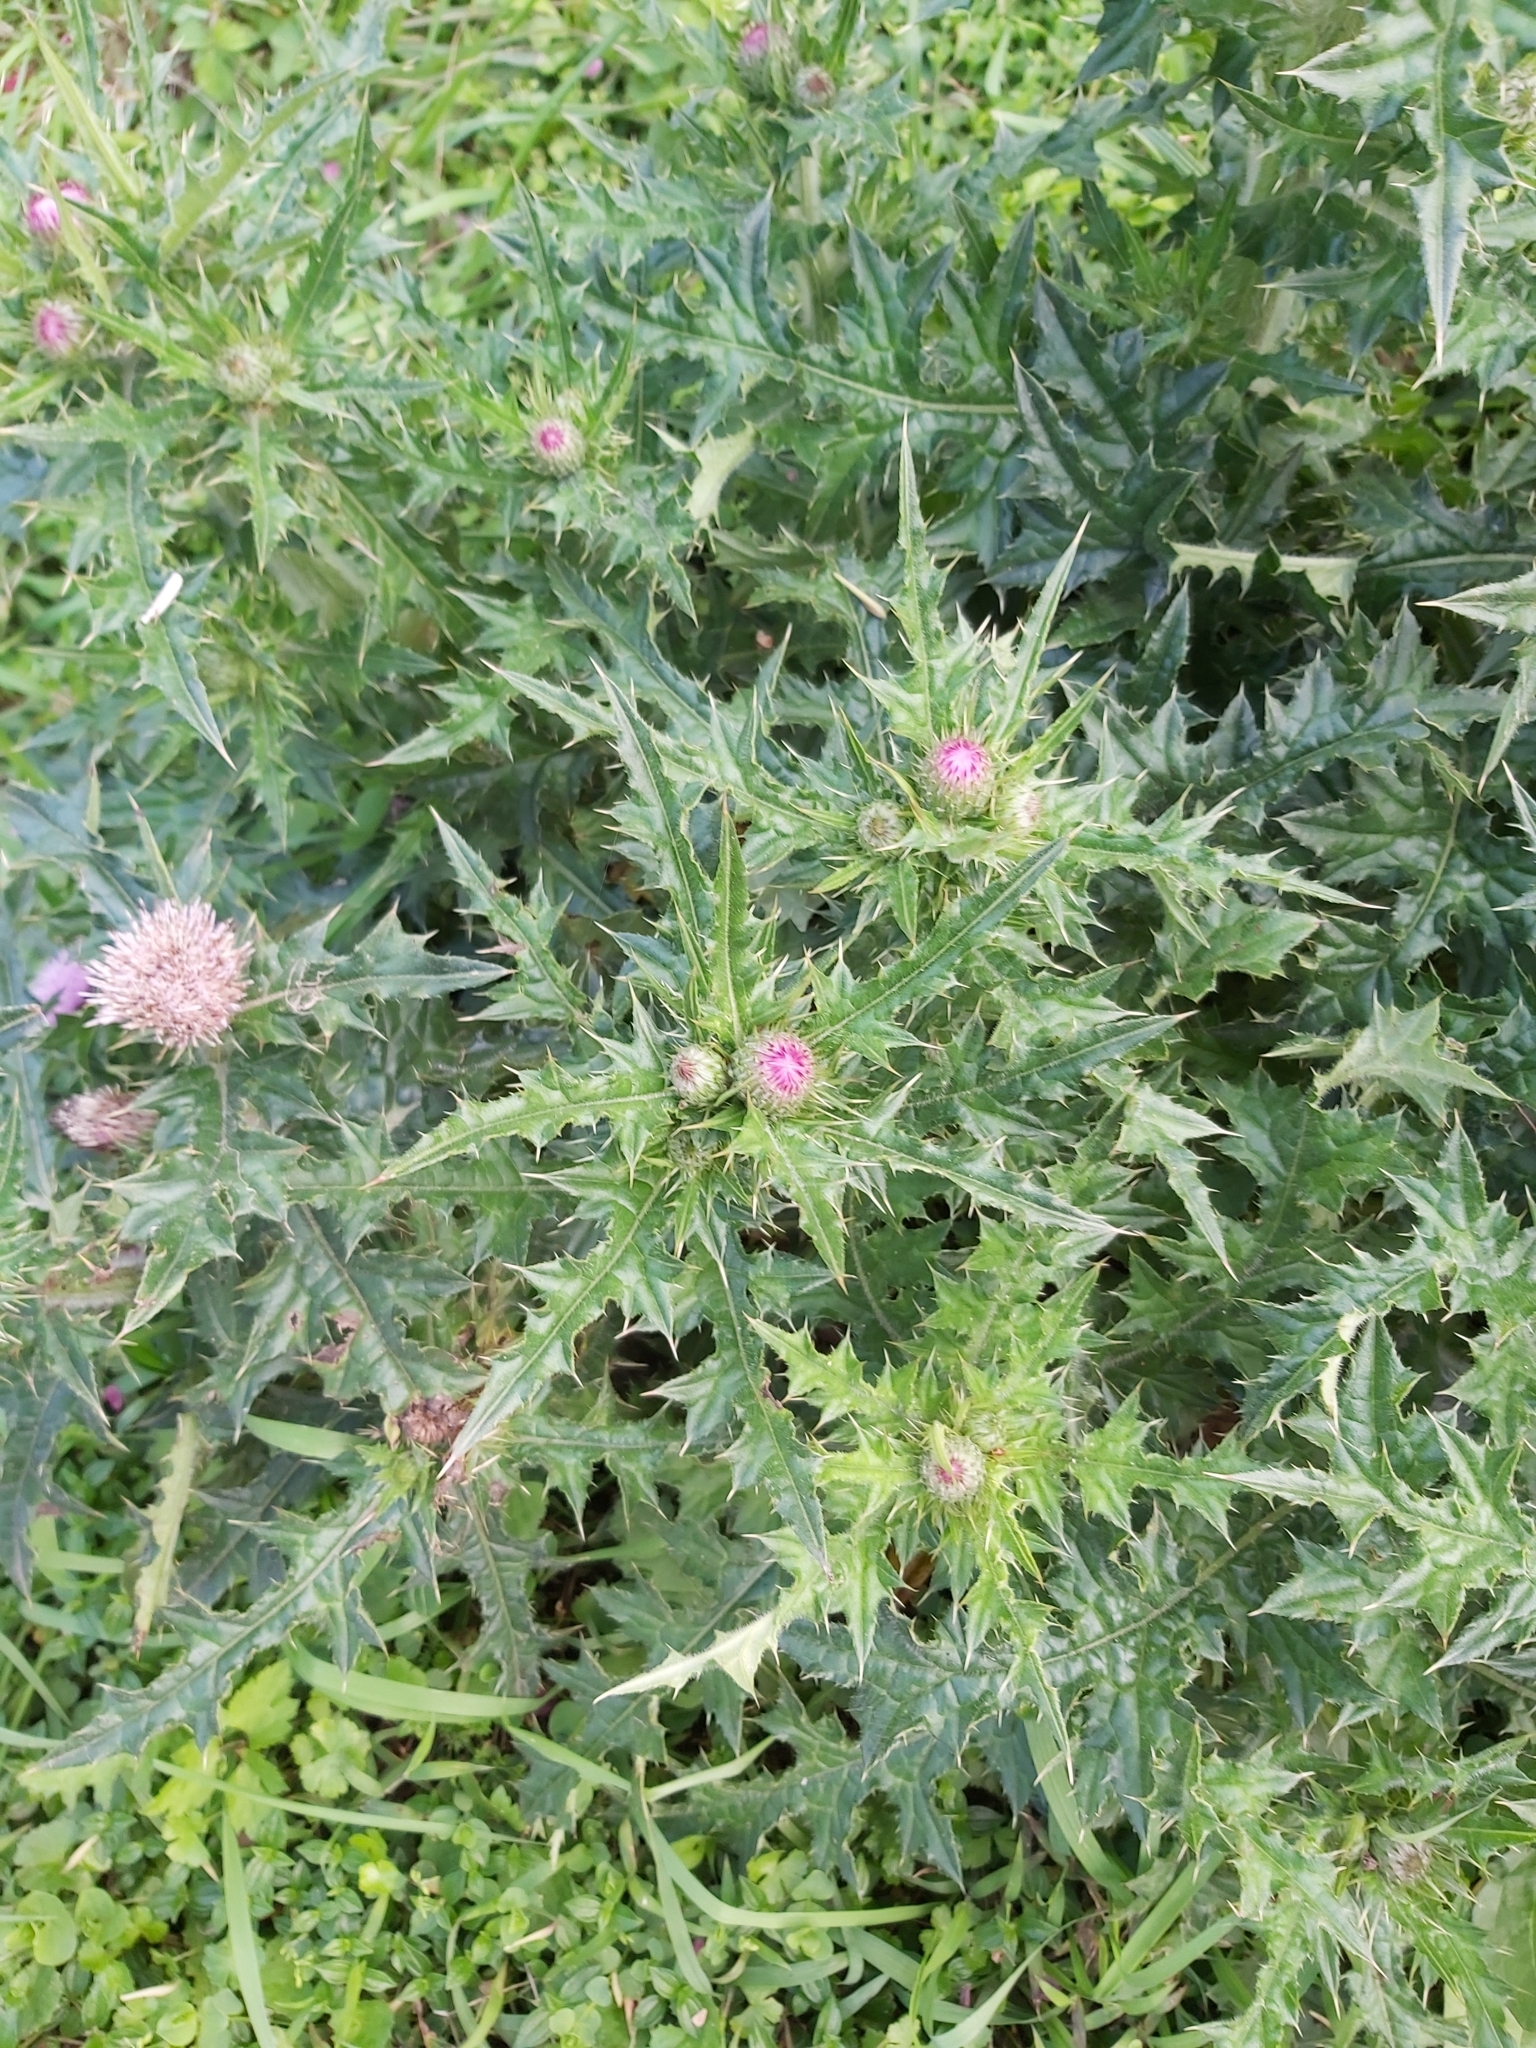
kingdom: Plantae
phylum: Tracheophyta
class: Magnoliopsida
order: Asterales
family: Asteraceae
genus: Cirsium
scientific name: Cirsium japonicum
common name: Japanese thistle
